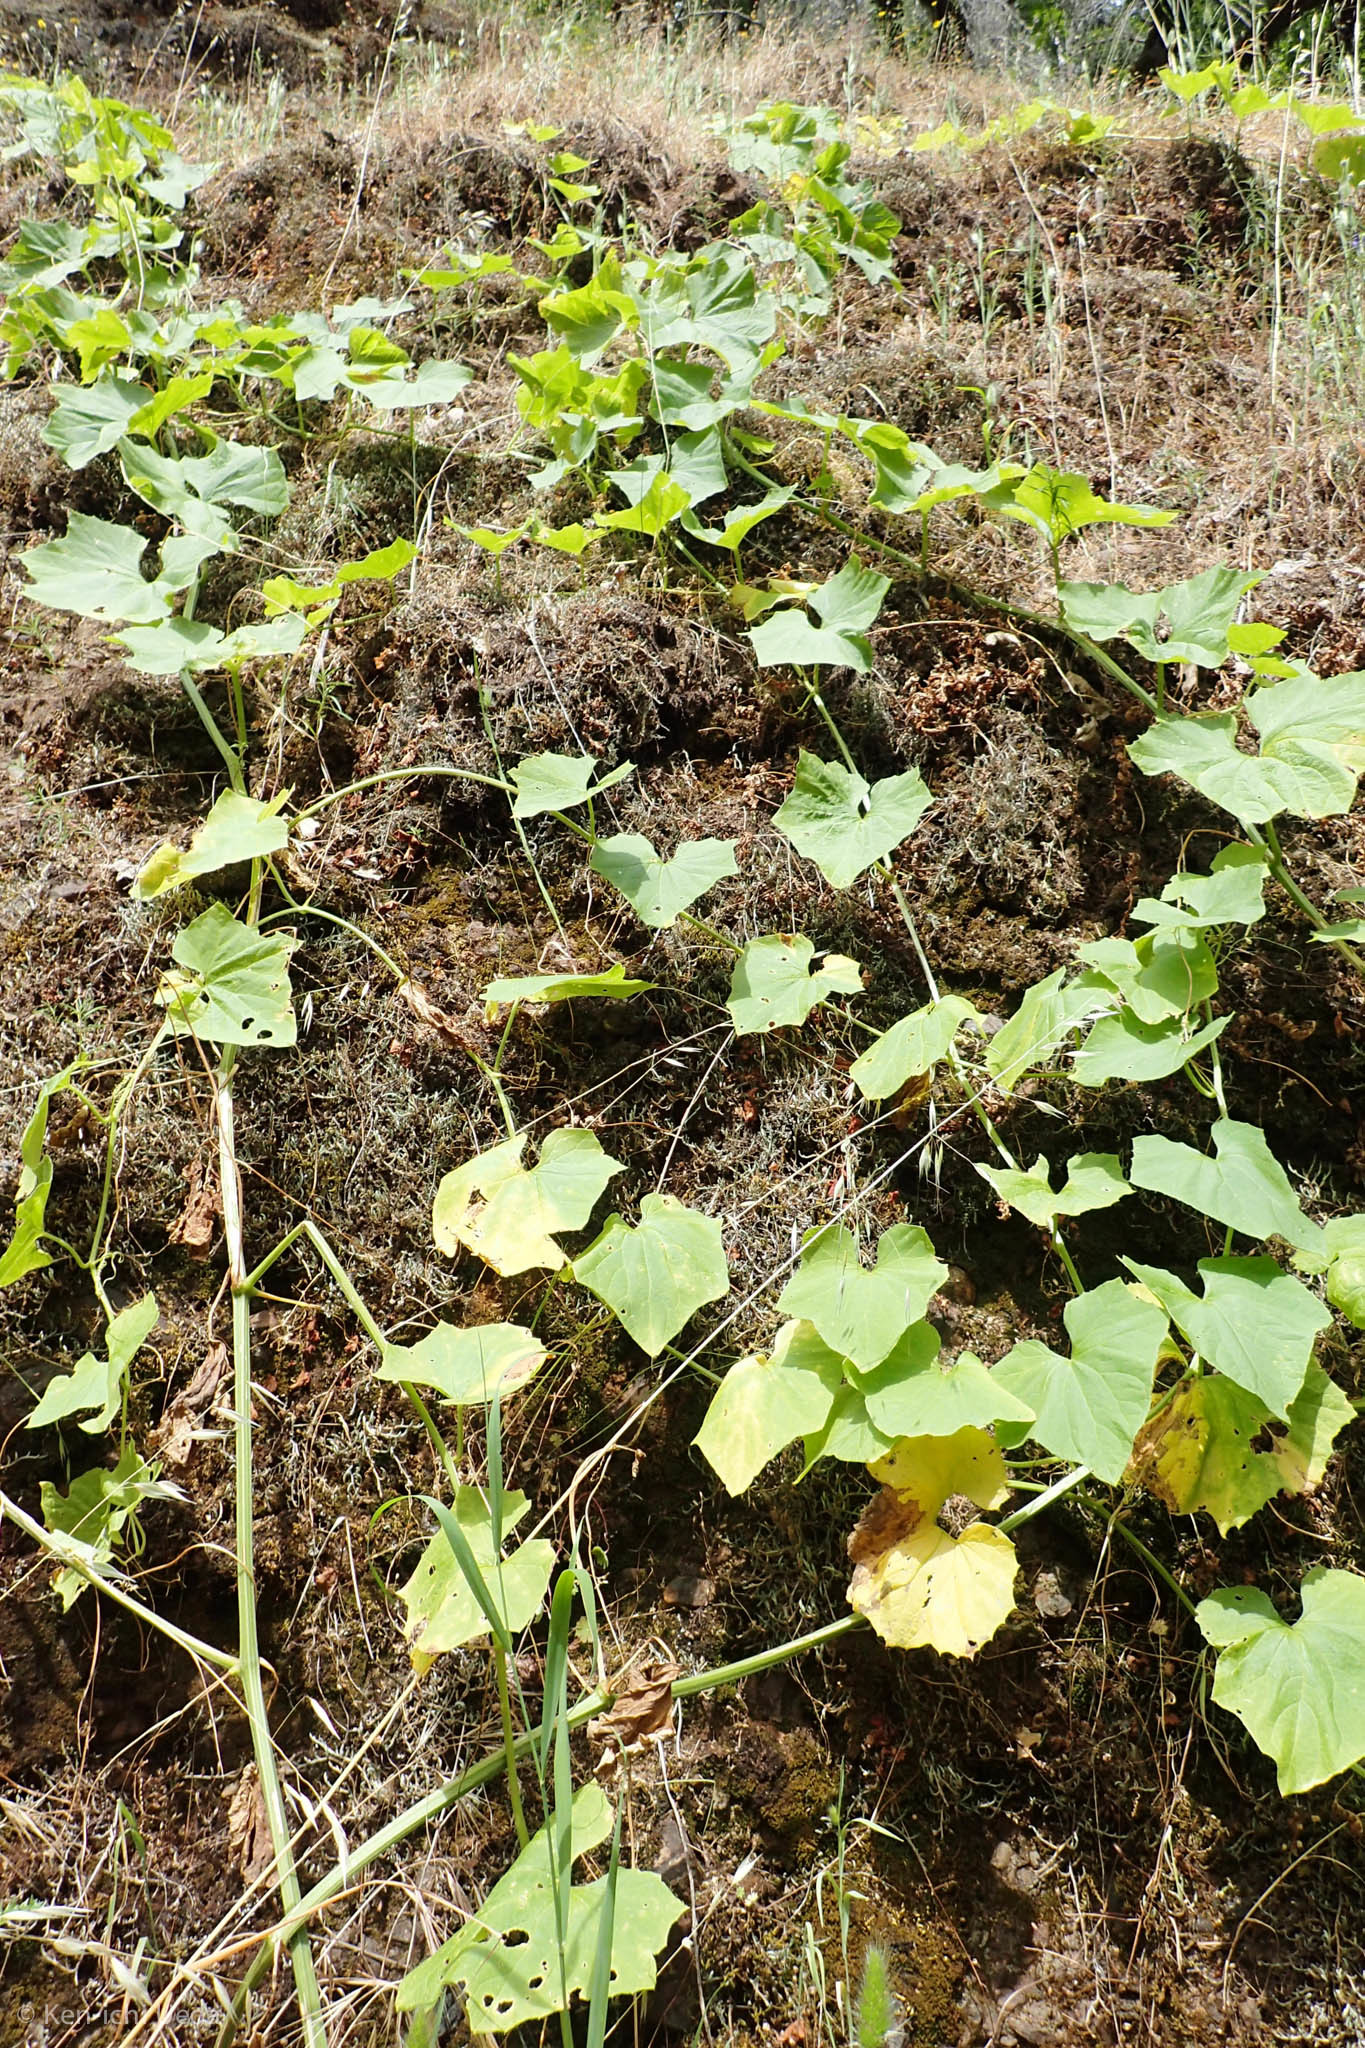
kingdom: Plantae
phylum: Tracheophyta
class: Magnoliopsida
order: Cucurbitales
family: Cucurbitaceae
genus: Marah
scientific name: Marah oregana
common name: Coastal manroot
